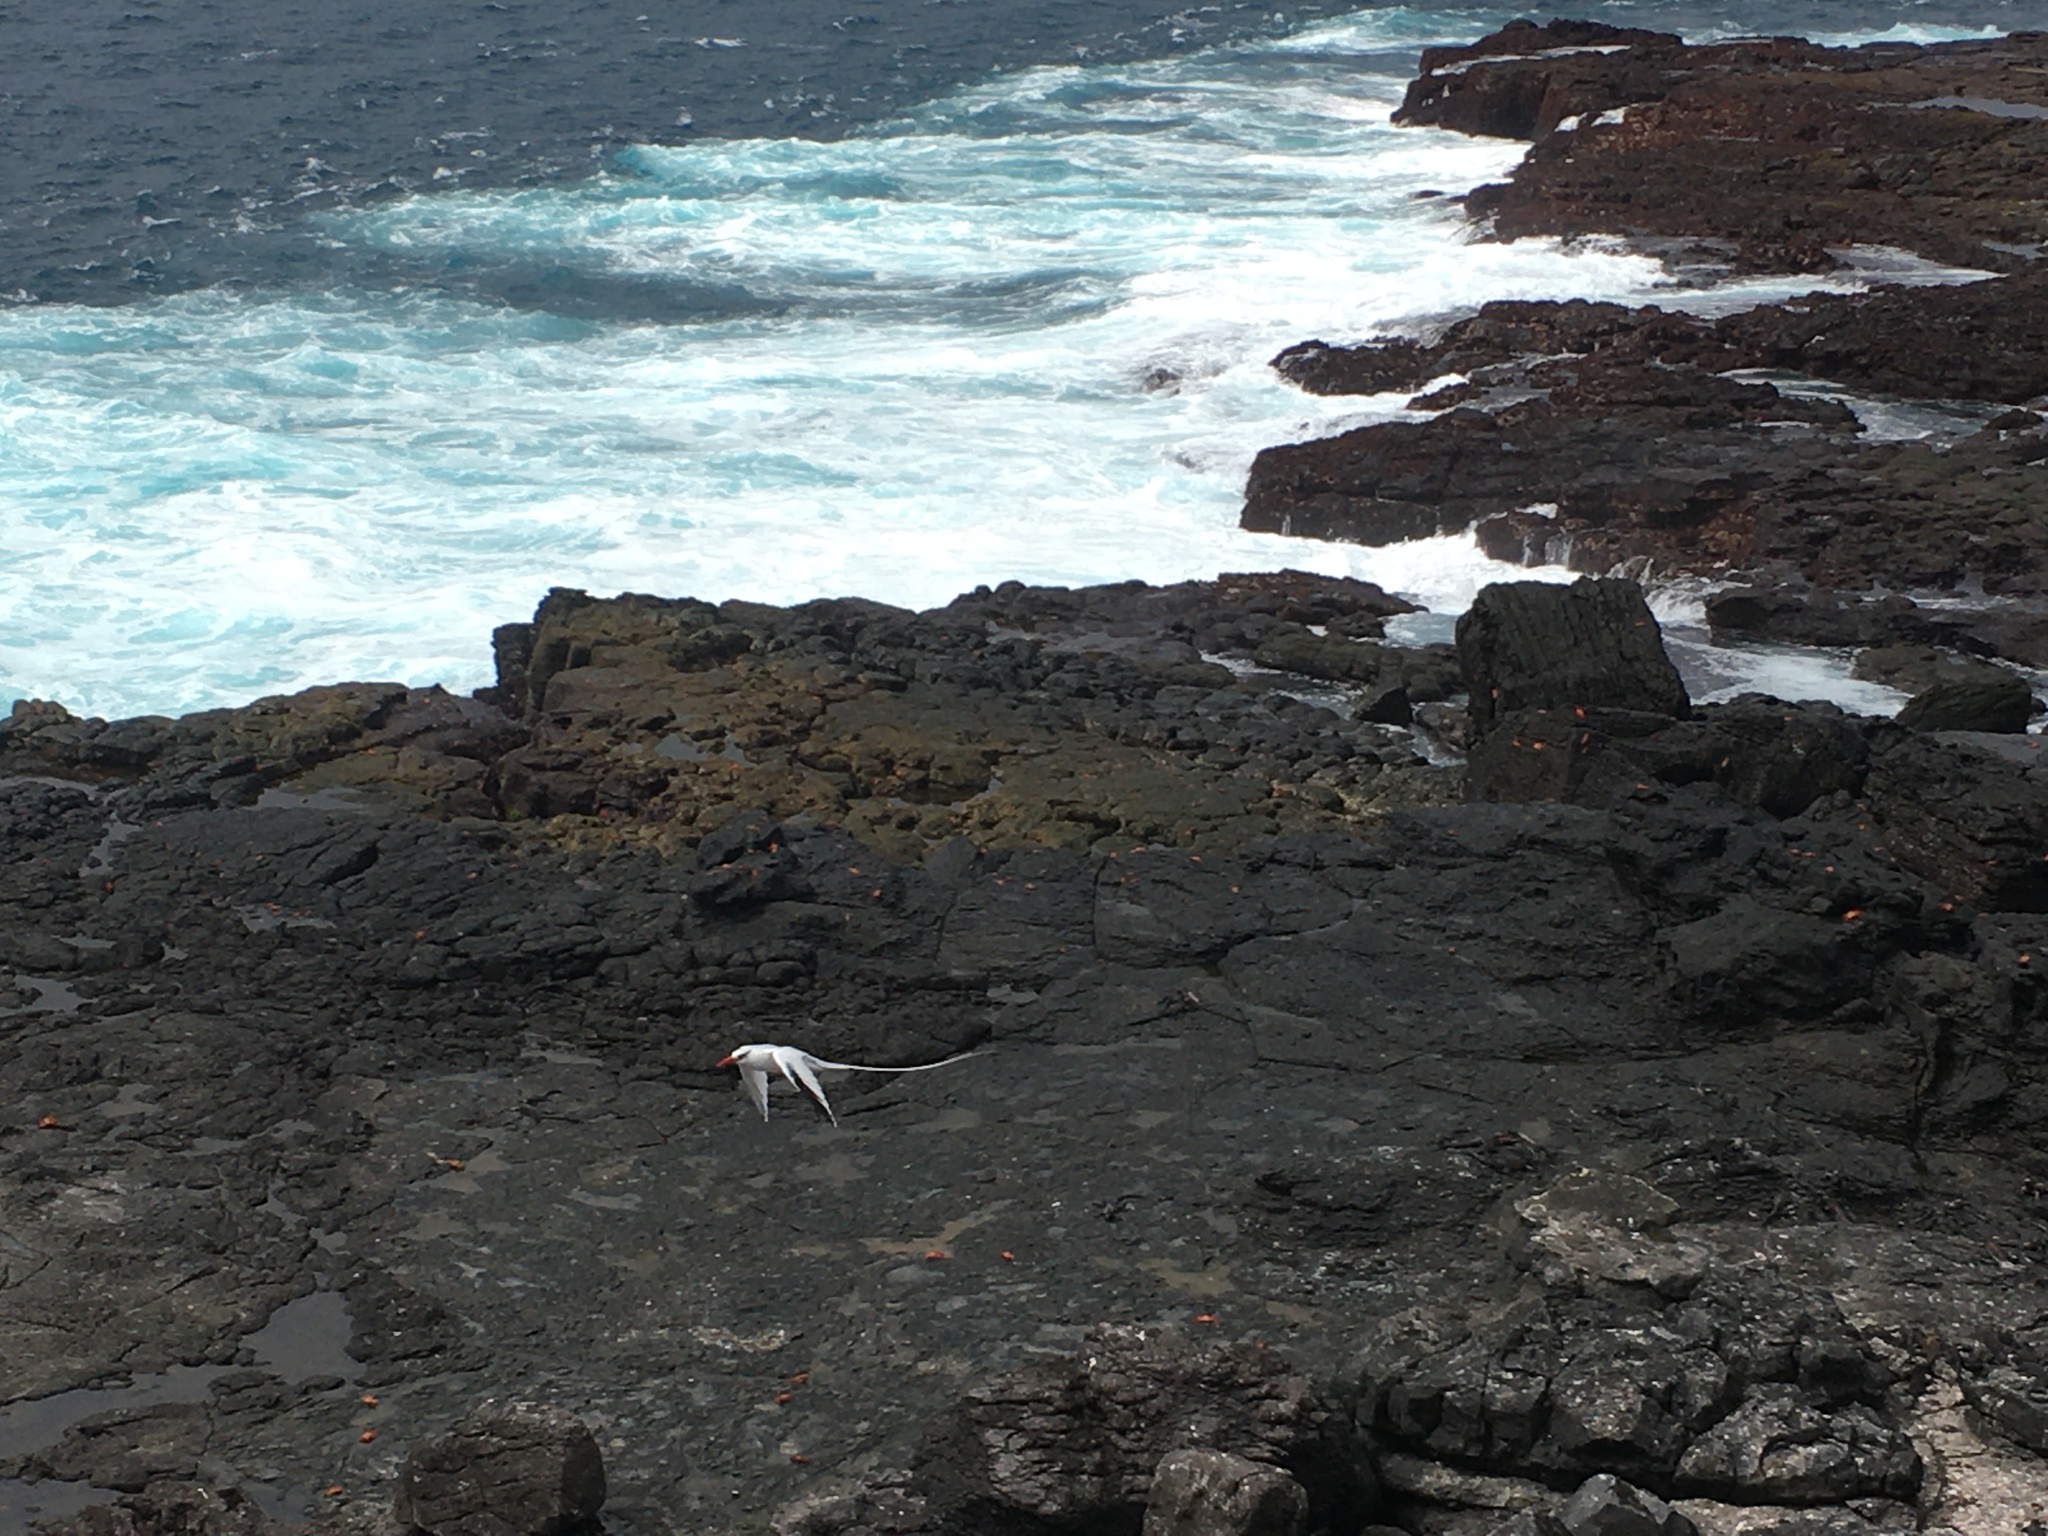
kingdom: Animalia
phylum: Chordata
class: Aves
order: Phaethontiformes
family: Phaethontidae
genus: Phaethon
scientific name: Phaethon aethereus
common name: Red-billed tropicbird
